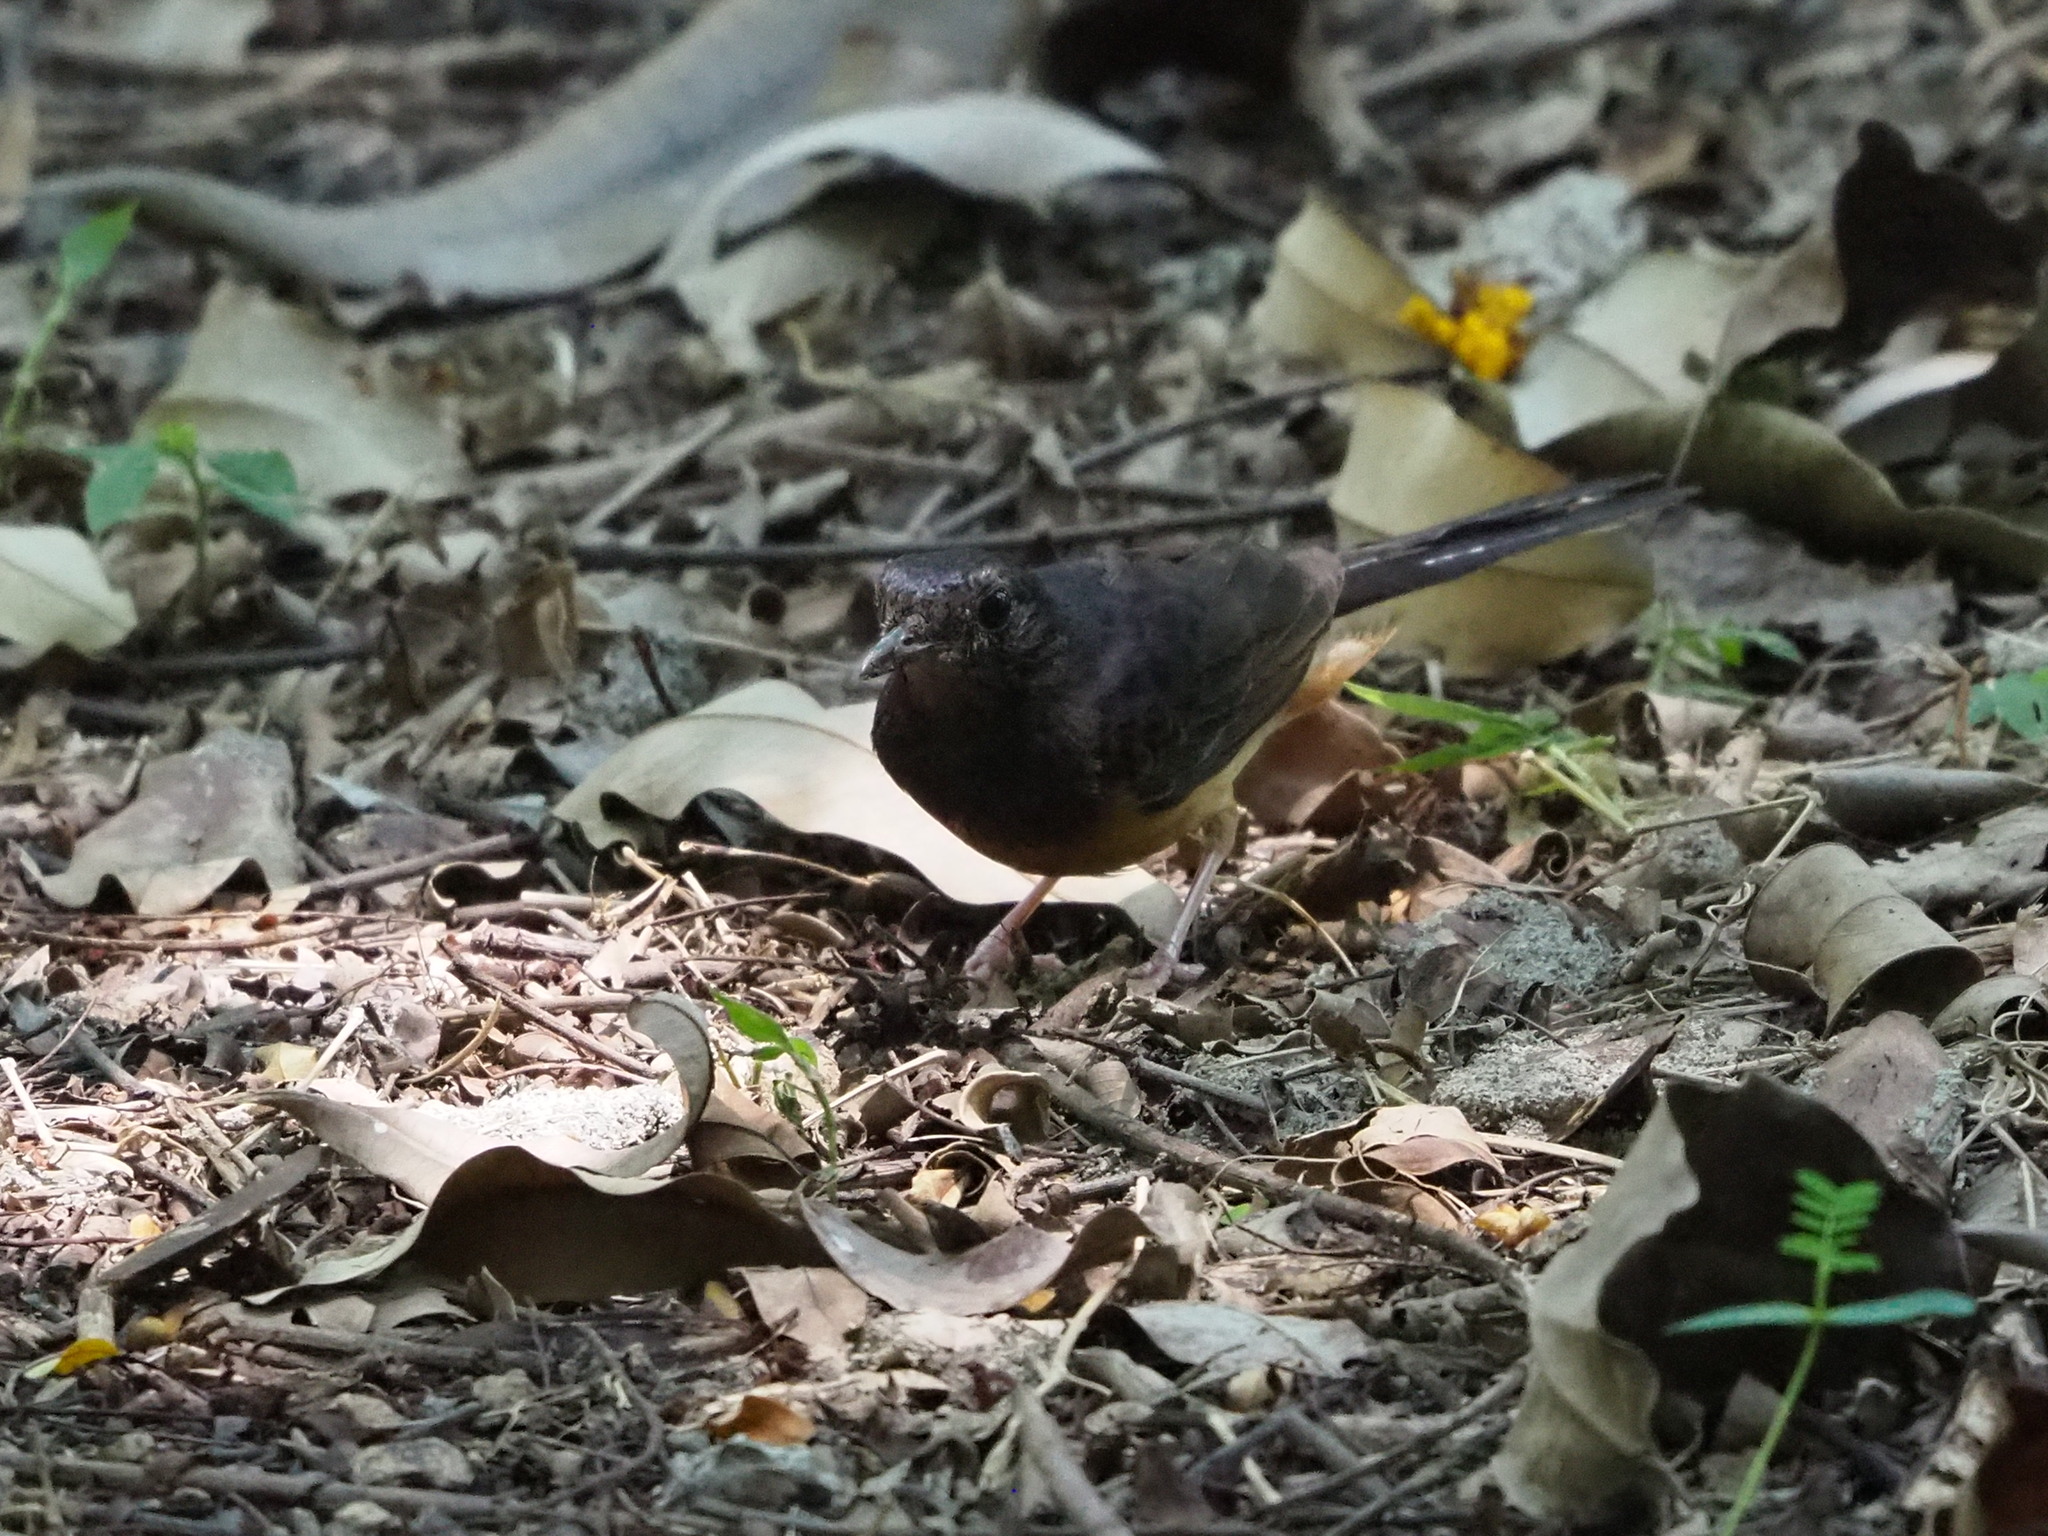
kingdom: Animalia
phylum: Chordata
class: Aves
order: Passeriformes
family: Muscicapidae
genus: Copsychus
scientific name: Copsychus malabaricus
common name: White-rumped shama
